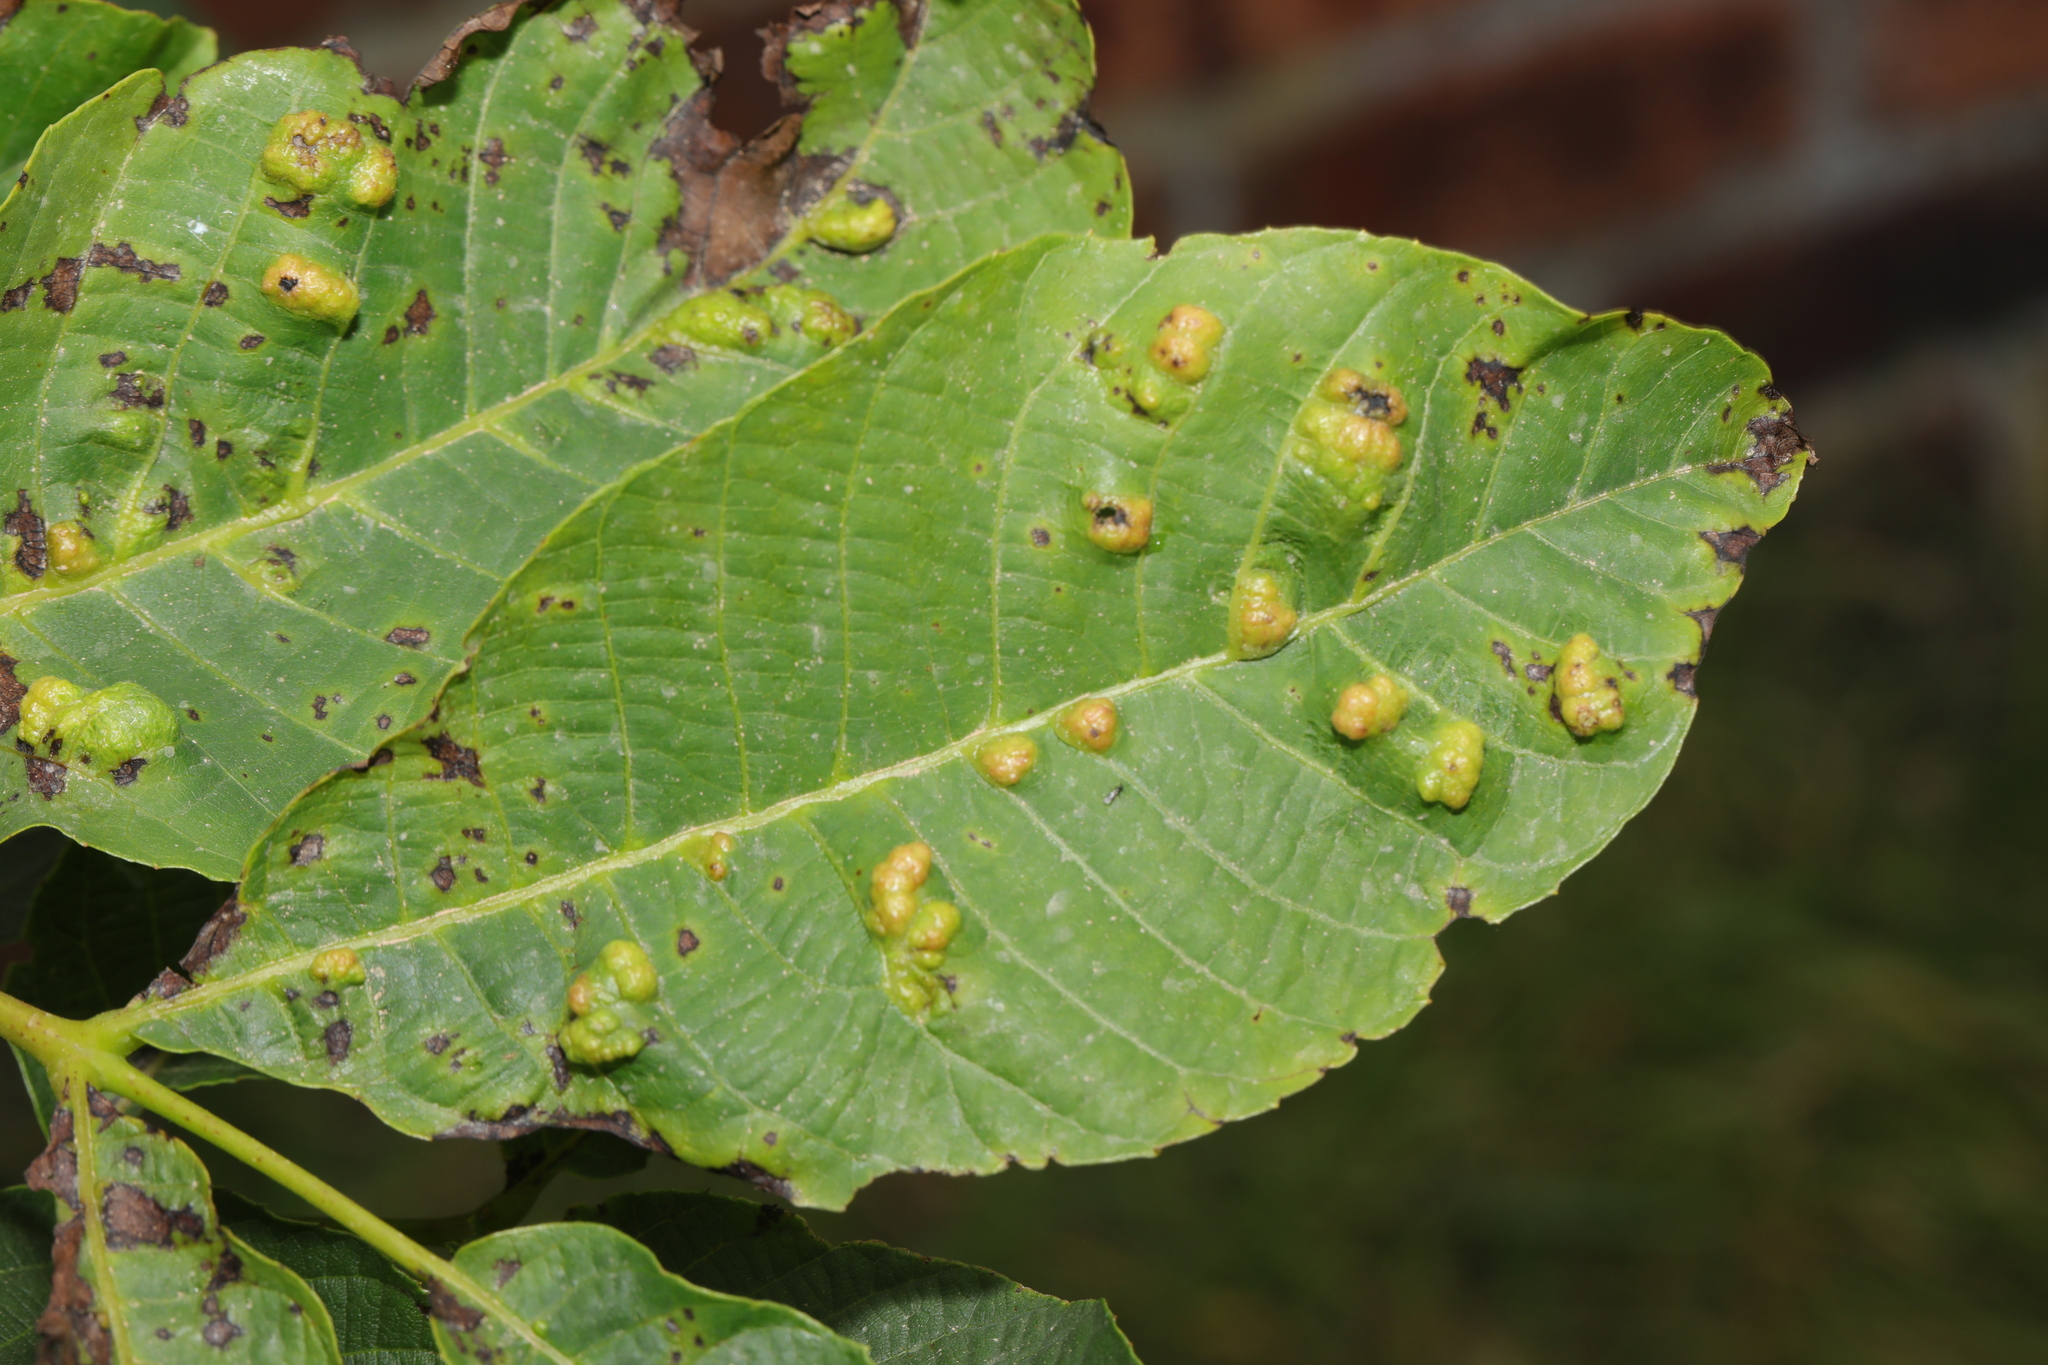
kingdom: Animalia
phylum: Arthropoda
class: Arachnida
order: Trombidiformes
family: Eriophyidae
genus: Aceria
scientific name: Aceria erinea
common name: Persian walnut erineum mite
